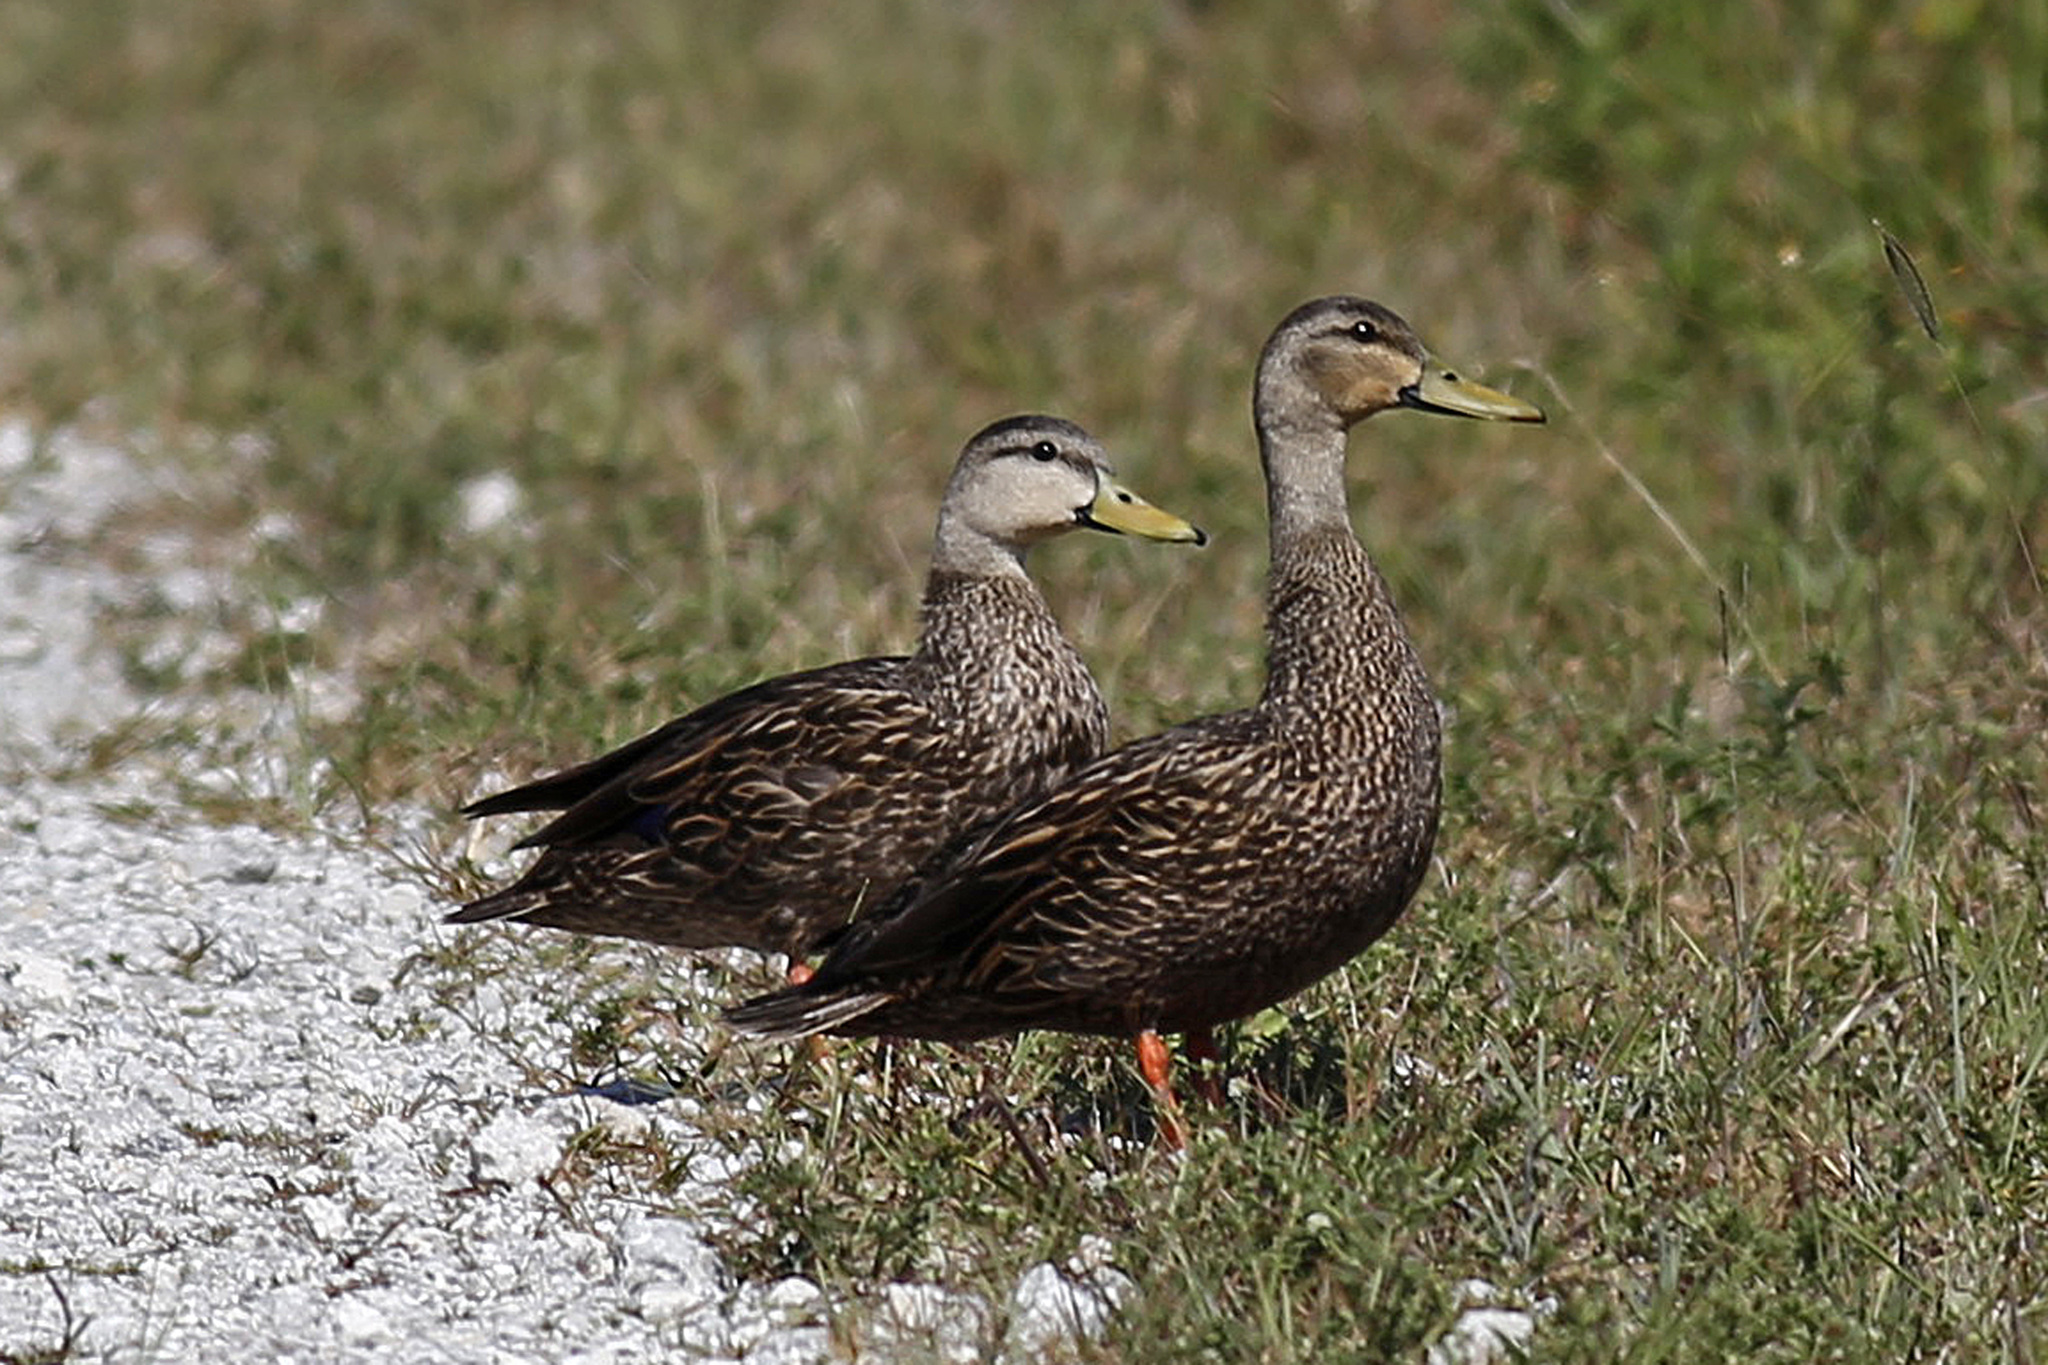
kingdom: Animalia
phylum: Chordata
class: Aves
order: Anseriformes
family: Anatidae
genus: Anas
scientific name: Anas fulvigula
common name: Mottled duck
